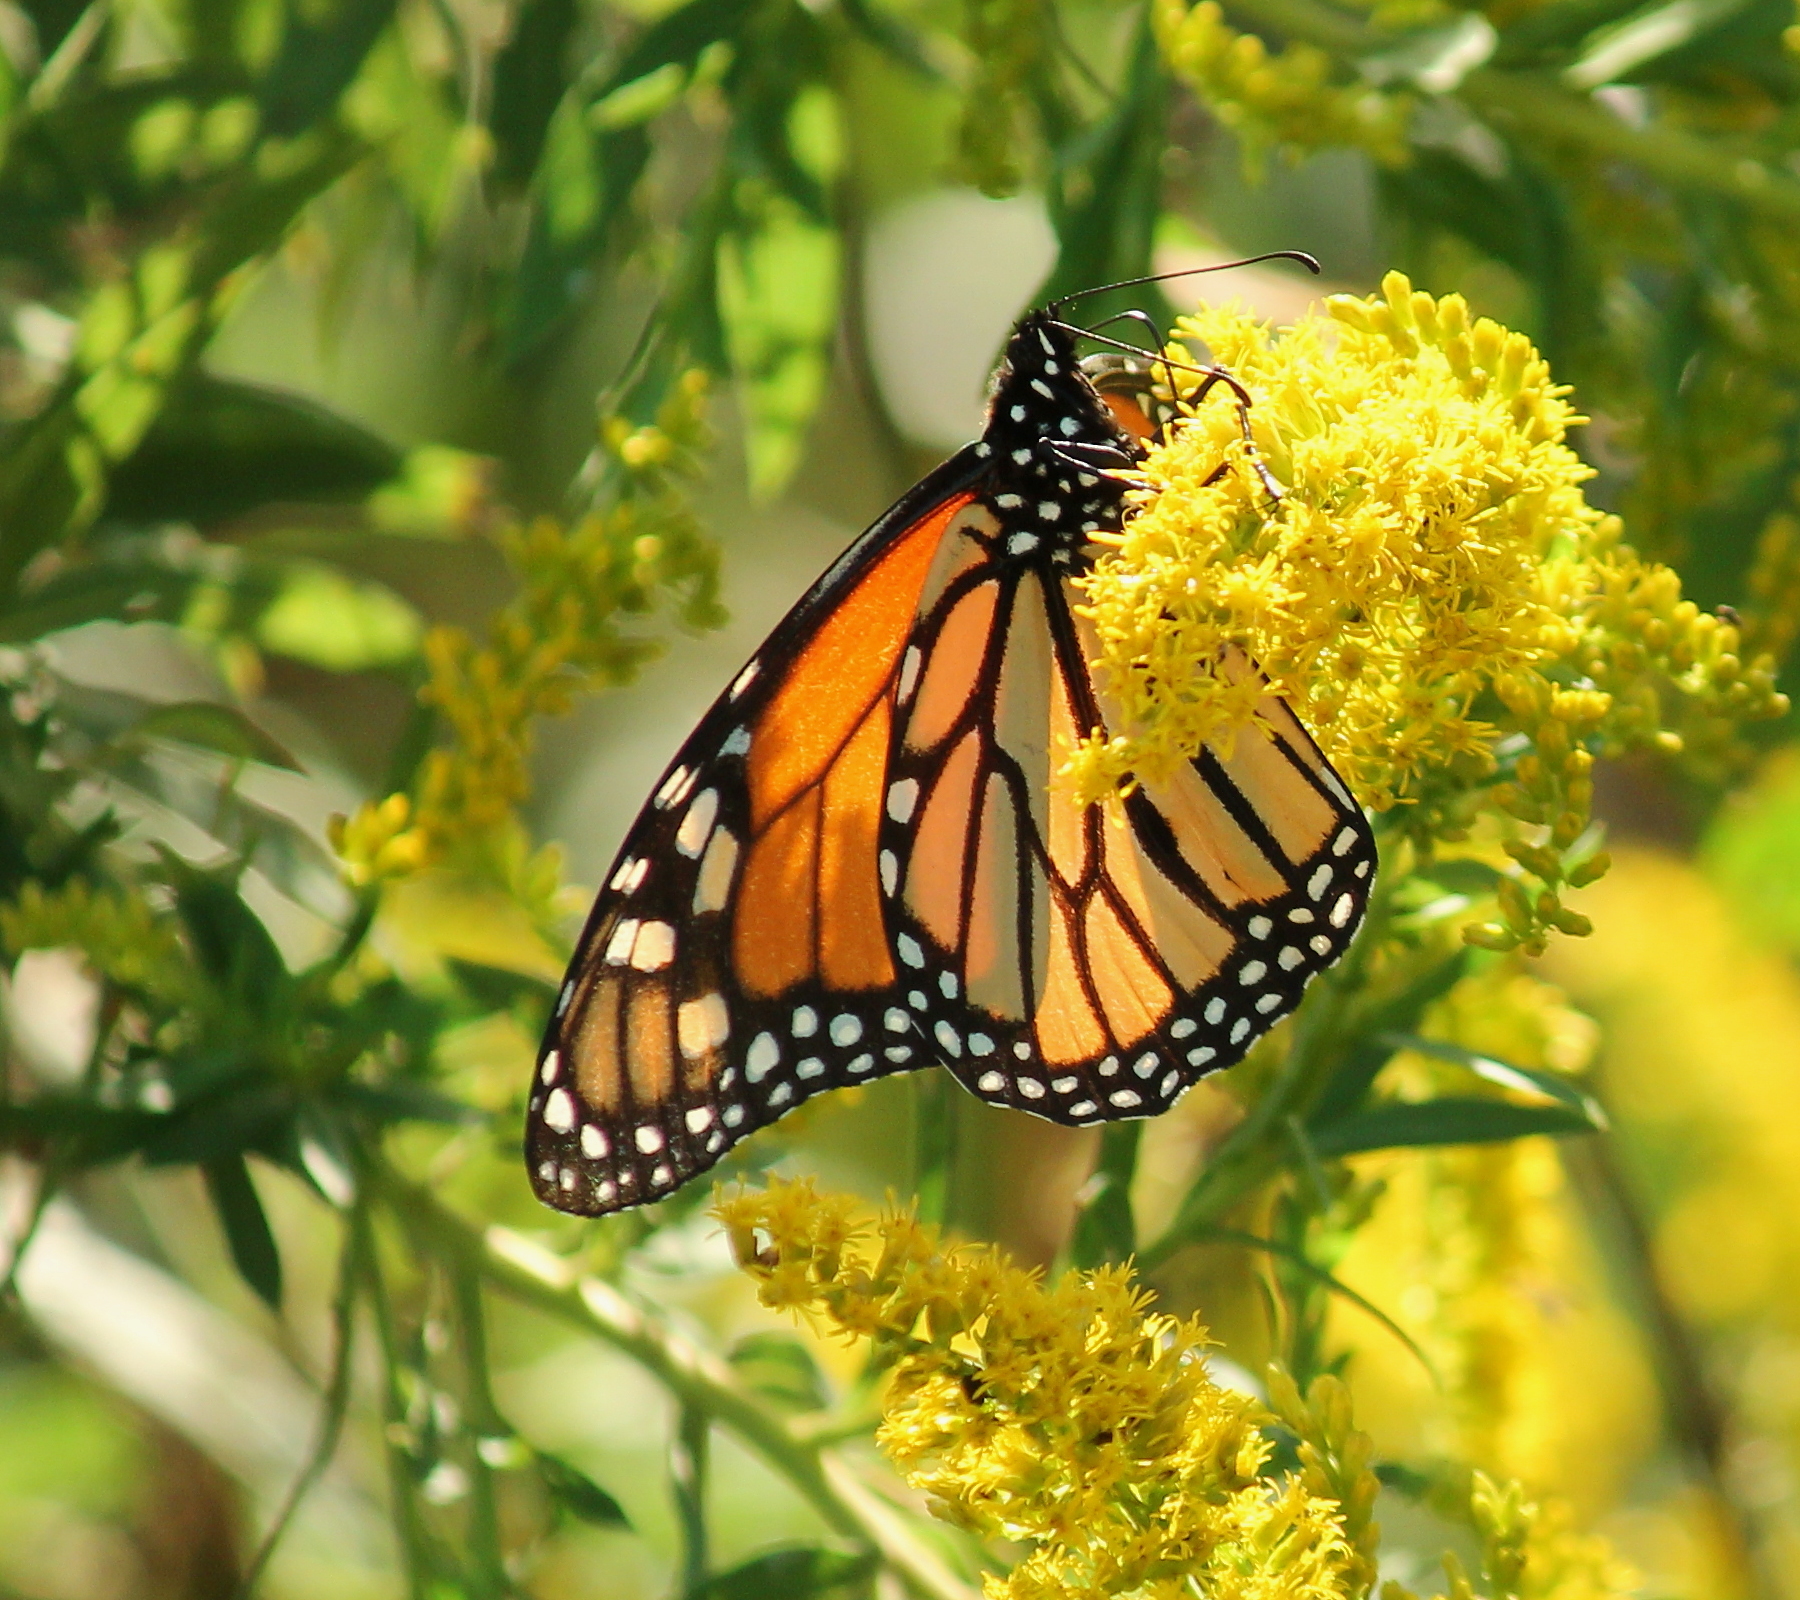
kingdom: Animalia
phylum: Arthropoda
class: Insecta
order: Lepidoptera
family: Nymphalidae
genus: Danaus
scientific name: Danaus plexippus
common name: Monarch
